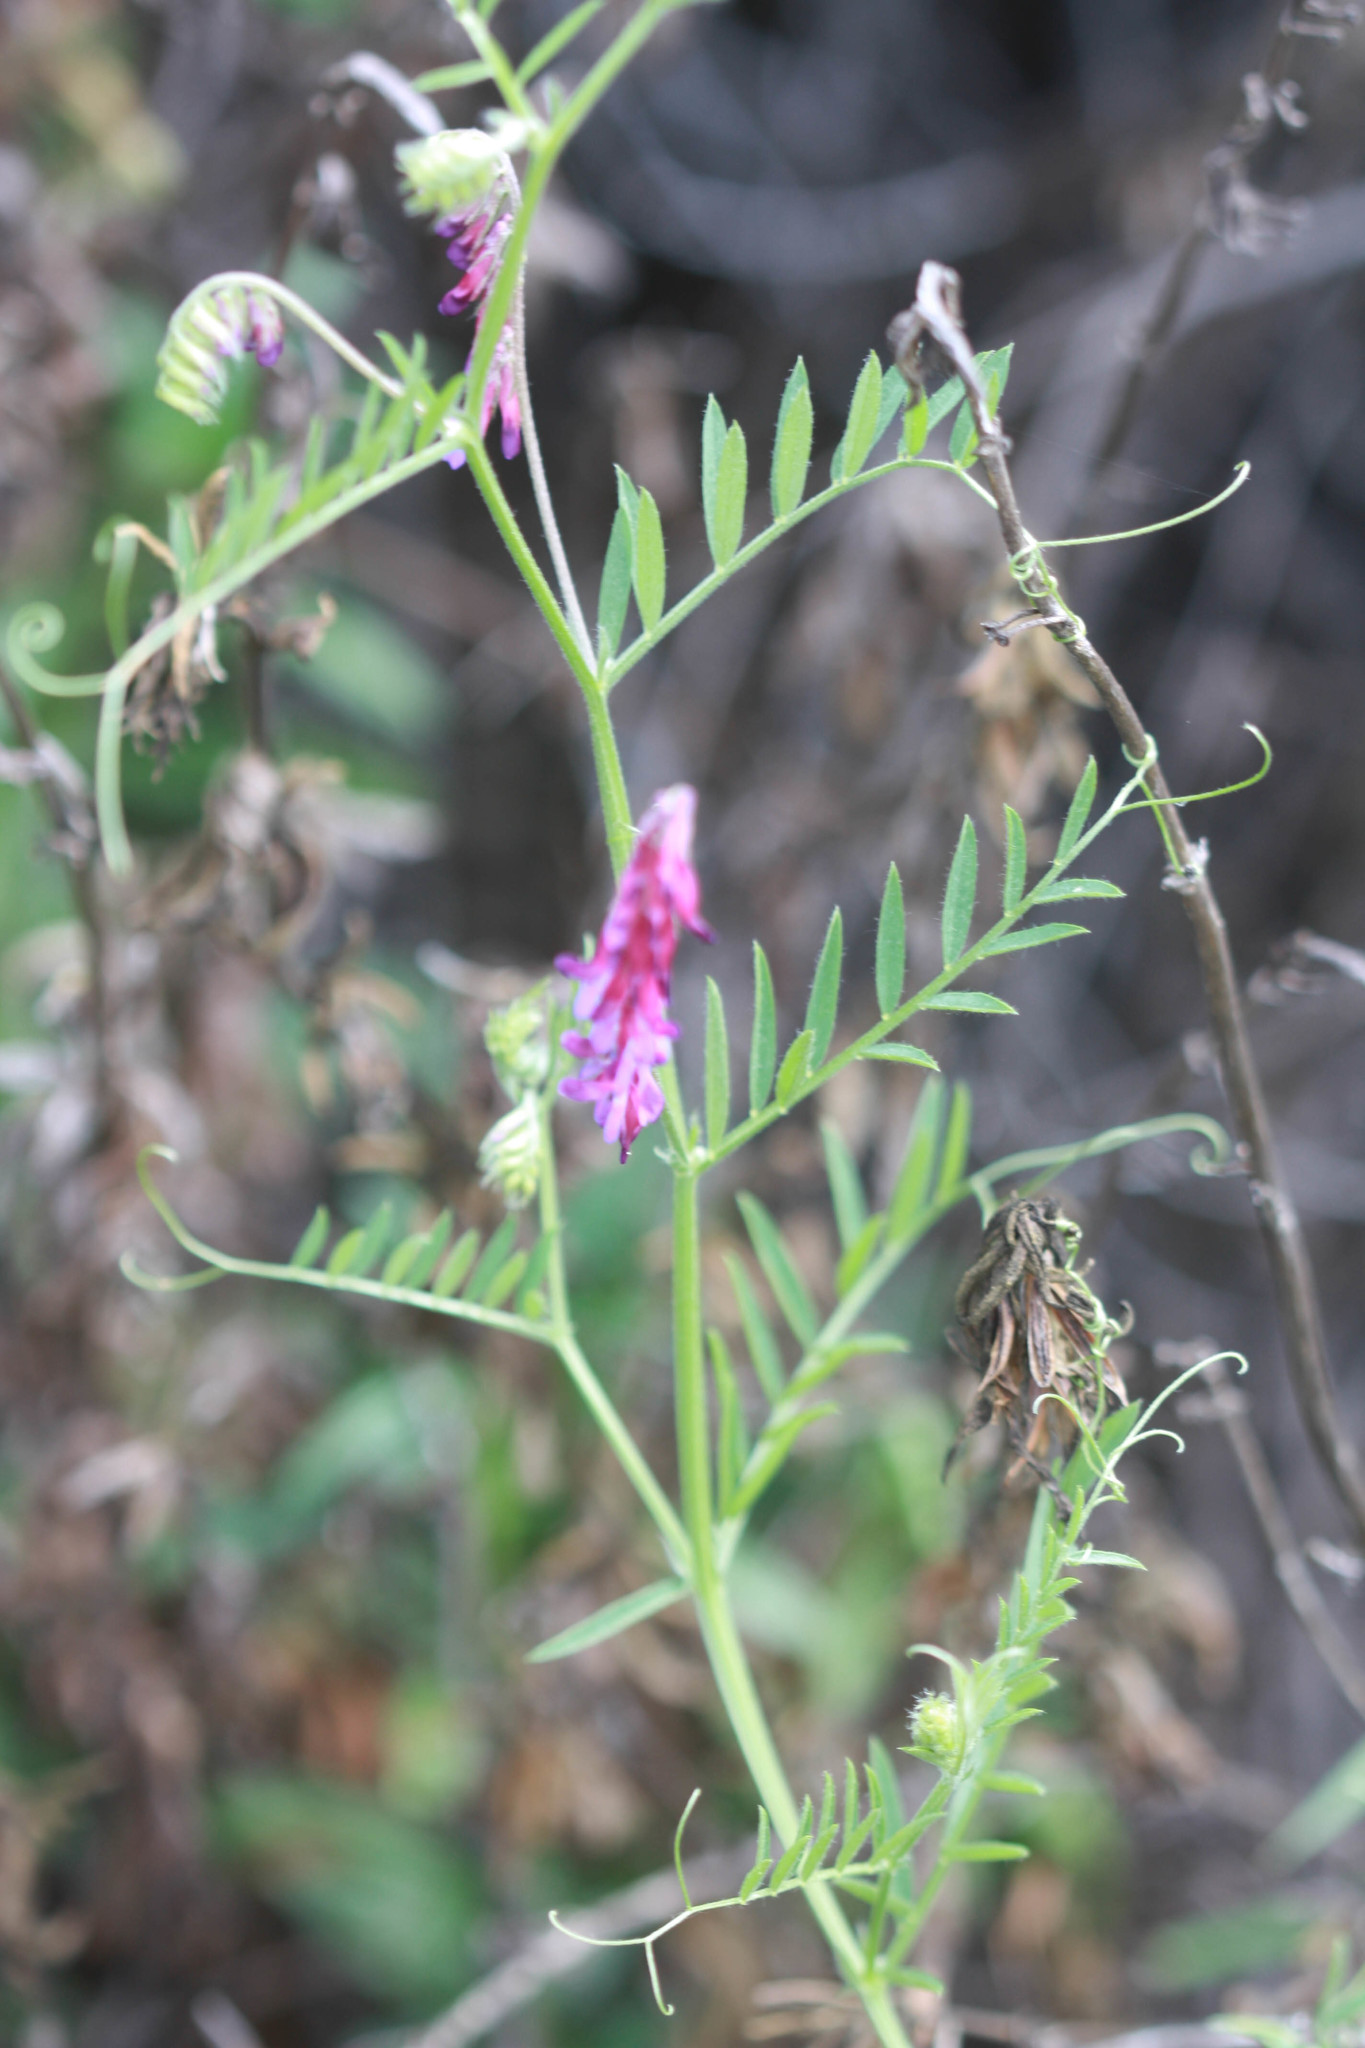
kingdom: Plantae
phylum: Tracheophyta
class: Magnoliopsida
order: Fabales
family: Fabaceae
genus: Vicia
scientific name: Vicia villosa
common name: Fodder vetch
